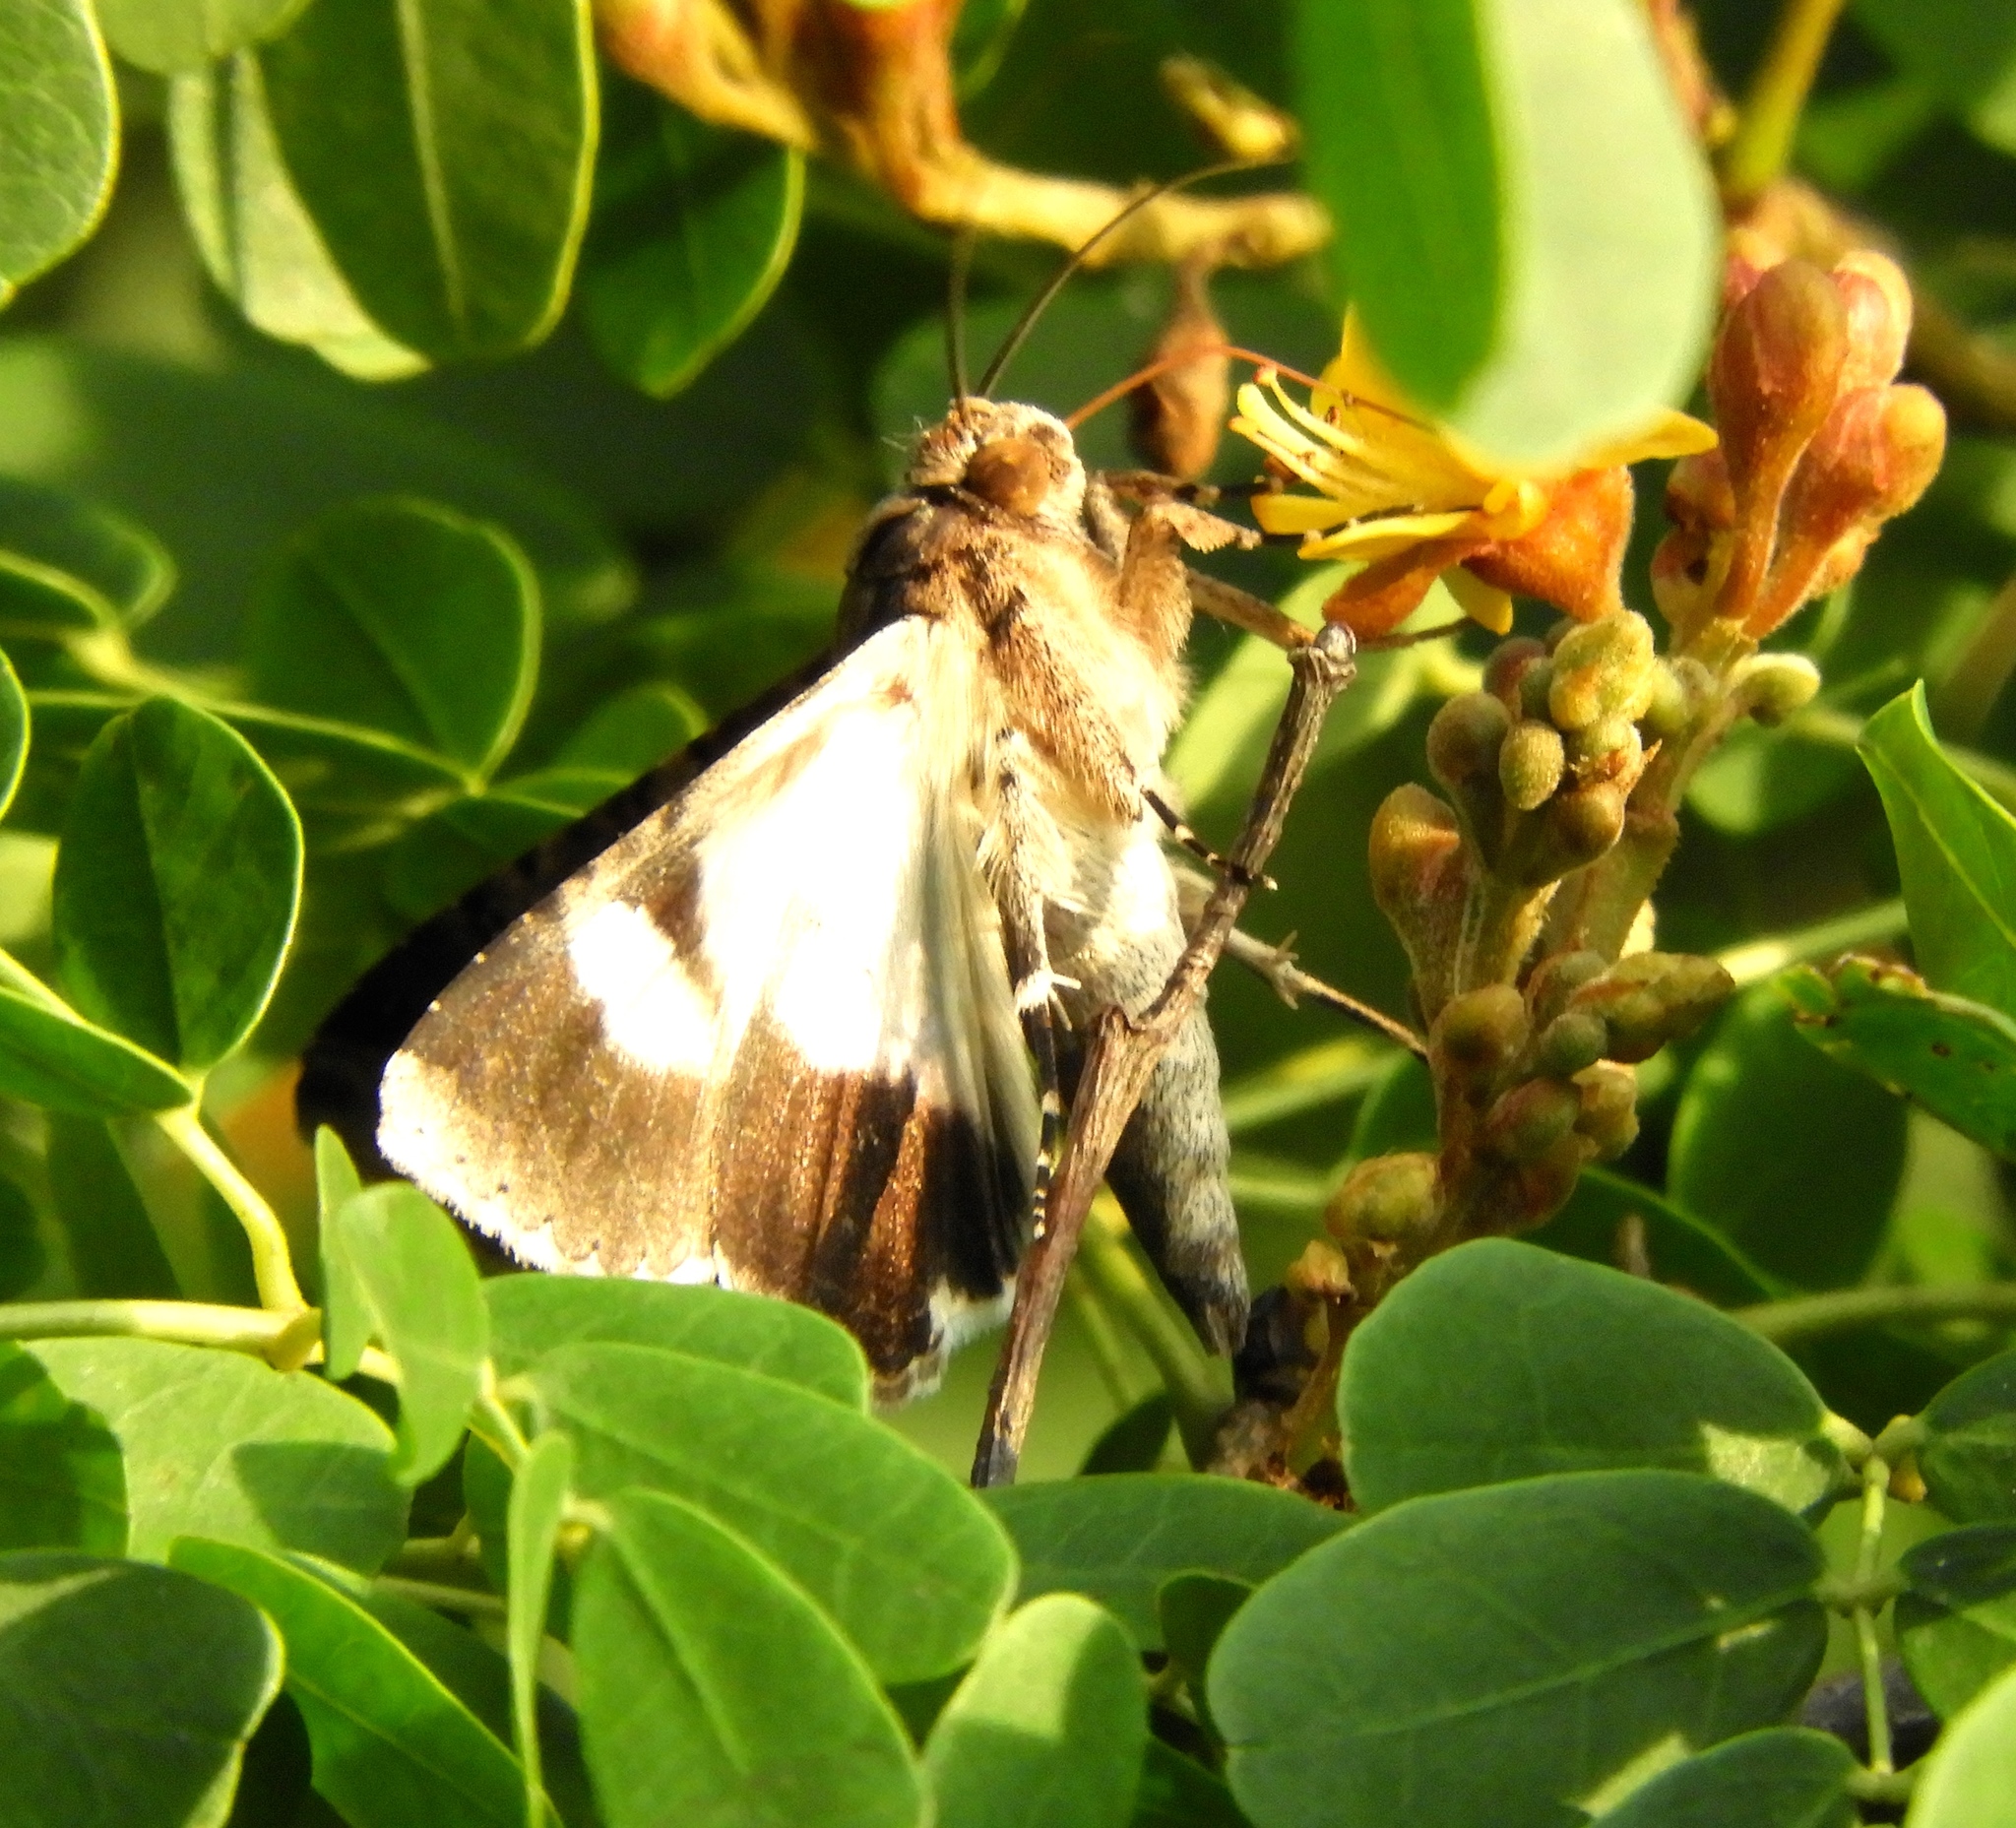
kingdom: Animalia
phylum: Arthropoda
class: Insecta
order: Lepidoptera
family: Erebidae
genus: Melipotis
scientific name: Melipotis
